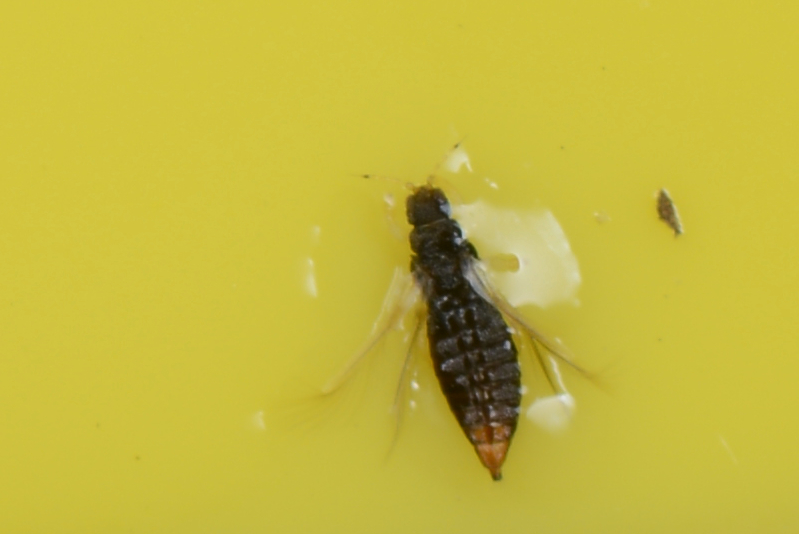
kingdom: Animalia
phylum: Arthropoda
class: Insecta
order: Thysanoptera
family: Thripidae
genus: Heliothrips
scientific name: Heliothrips haemorrhoidalis
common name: Thrips
